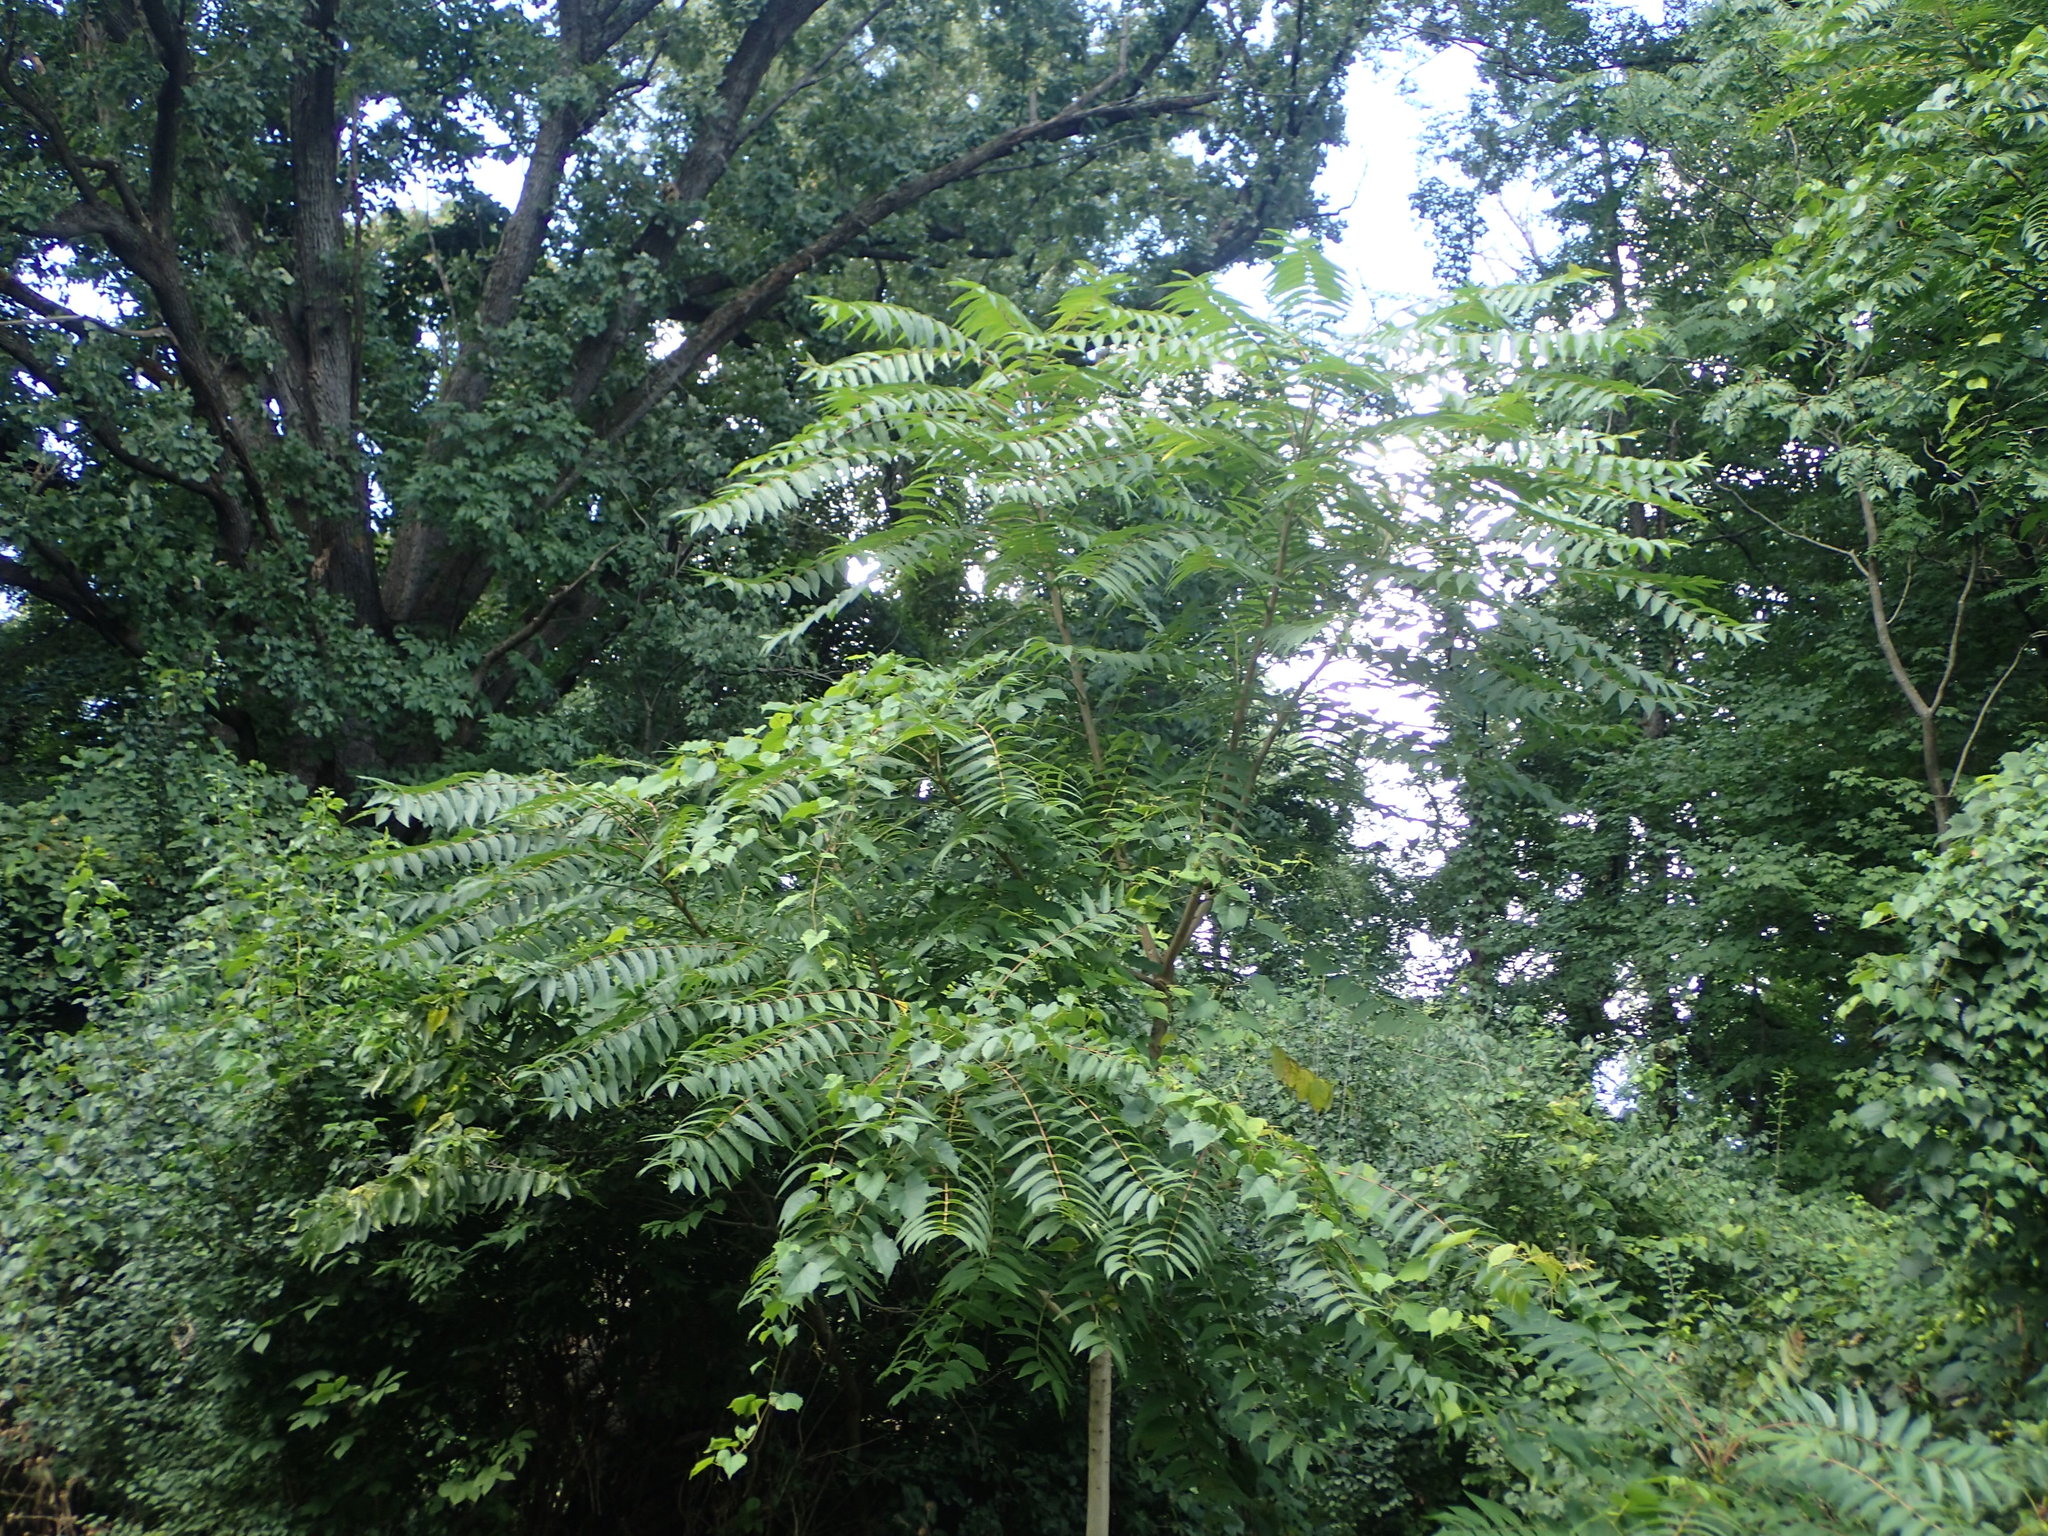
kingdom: Plantae
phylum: Tracheophyta
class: Magnoliopsida
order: Sapindales
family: Simaroubaceae
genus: Ailanthus
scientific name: Ailanthus altissima
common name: Tree-of-heaven
